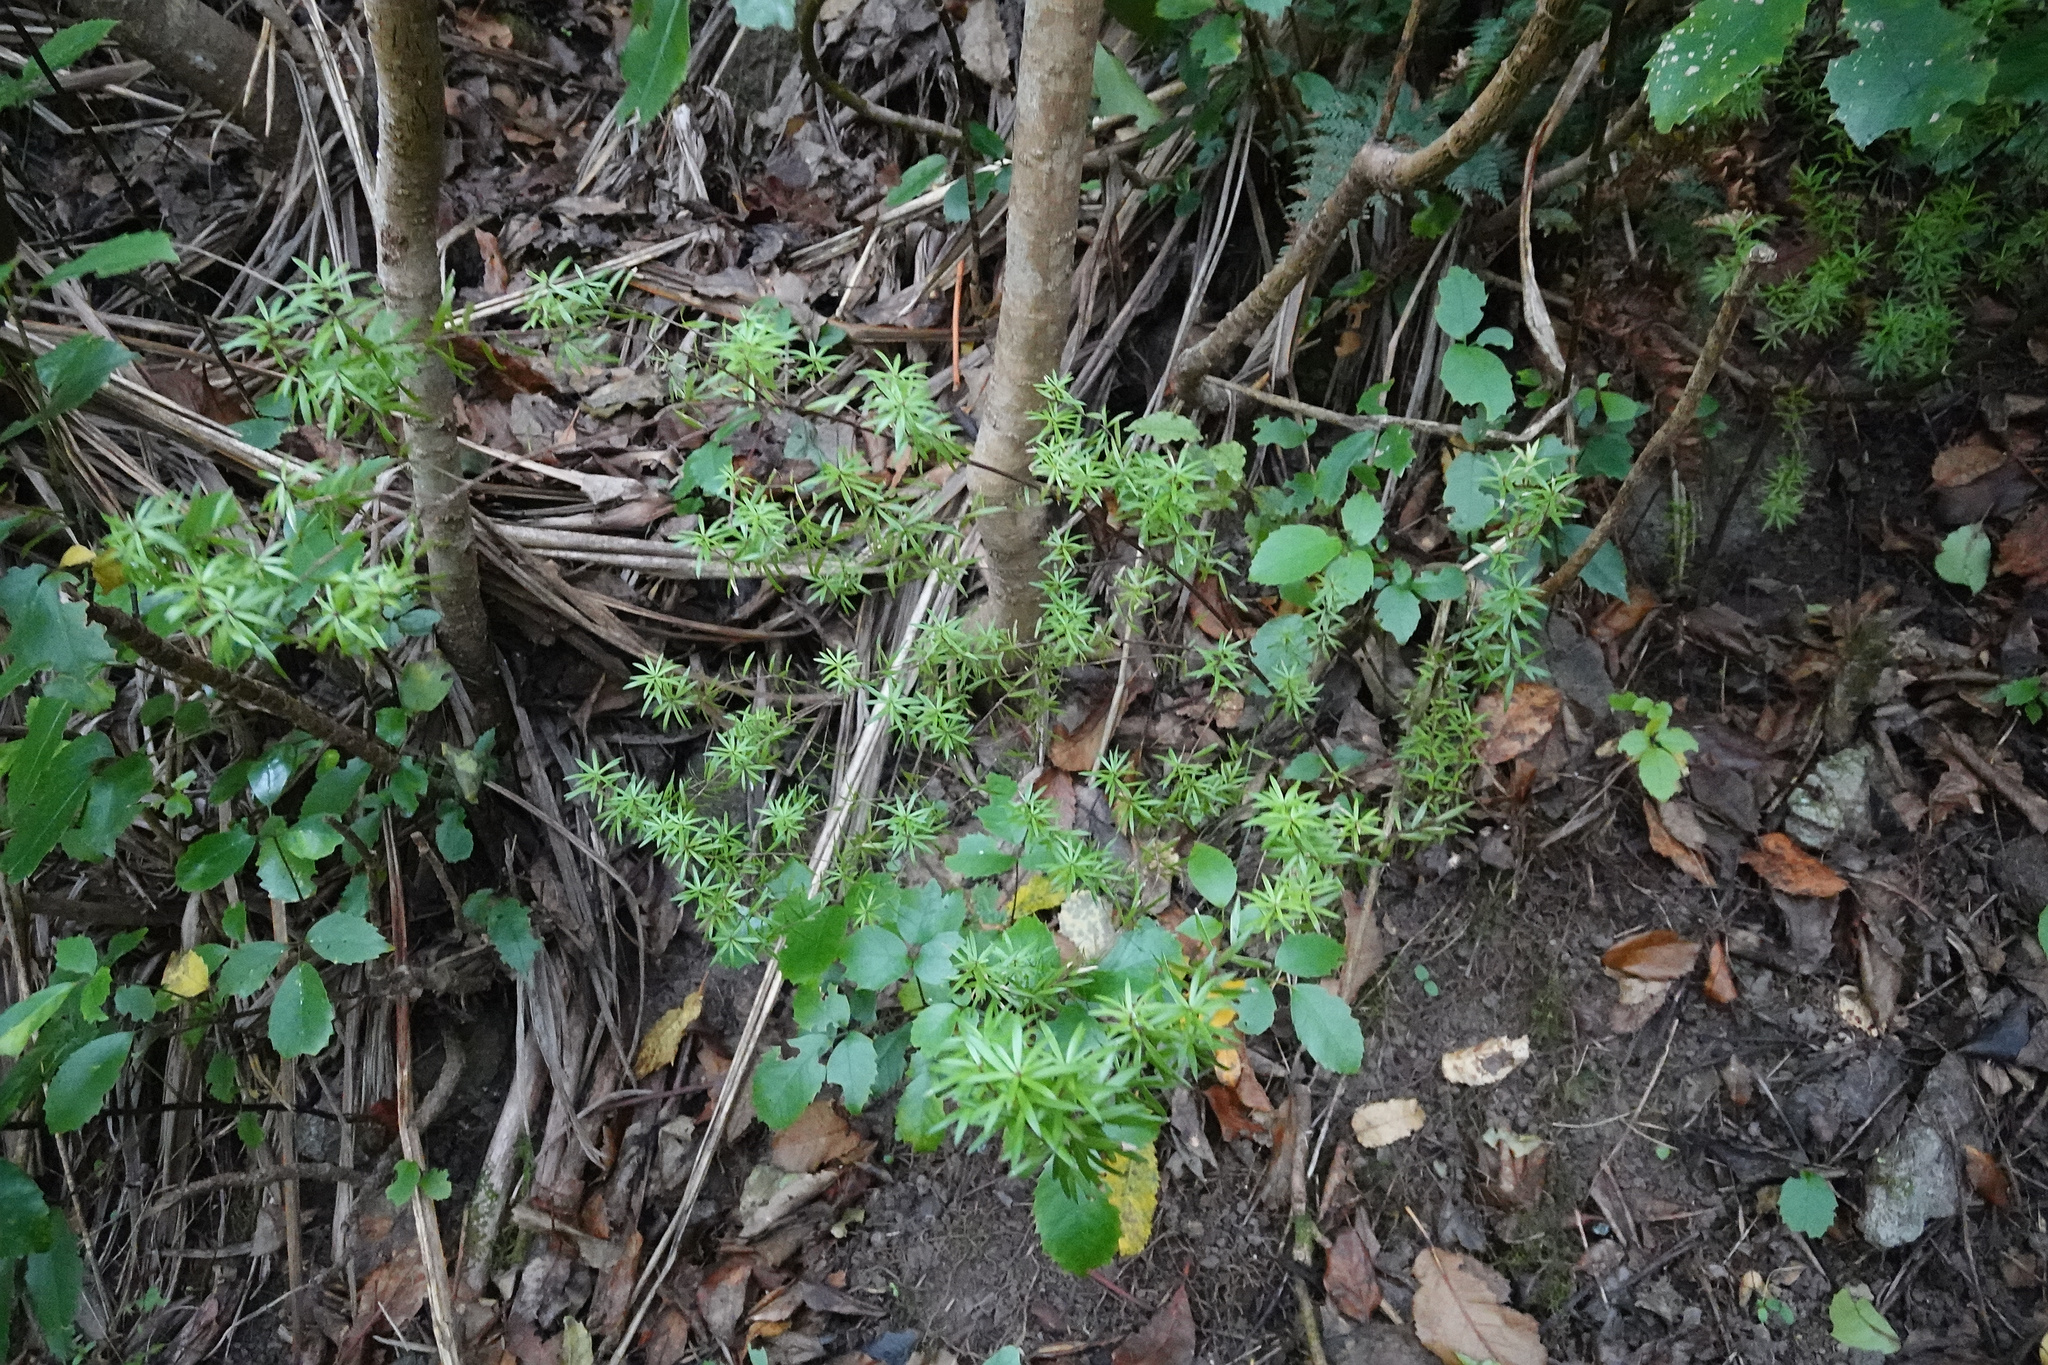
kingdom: Plantae
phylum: Tracheophyta
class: Magnoliopsida
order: Ericales
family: Ericaceae
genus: Leucopogon
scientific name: Leucopogon fasciculatus
